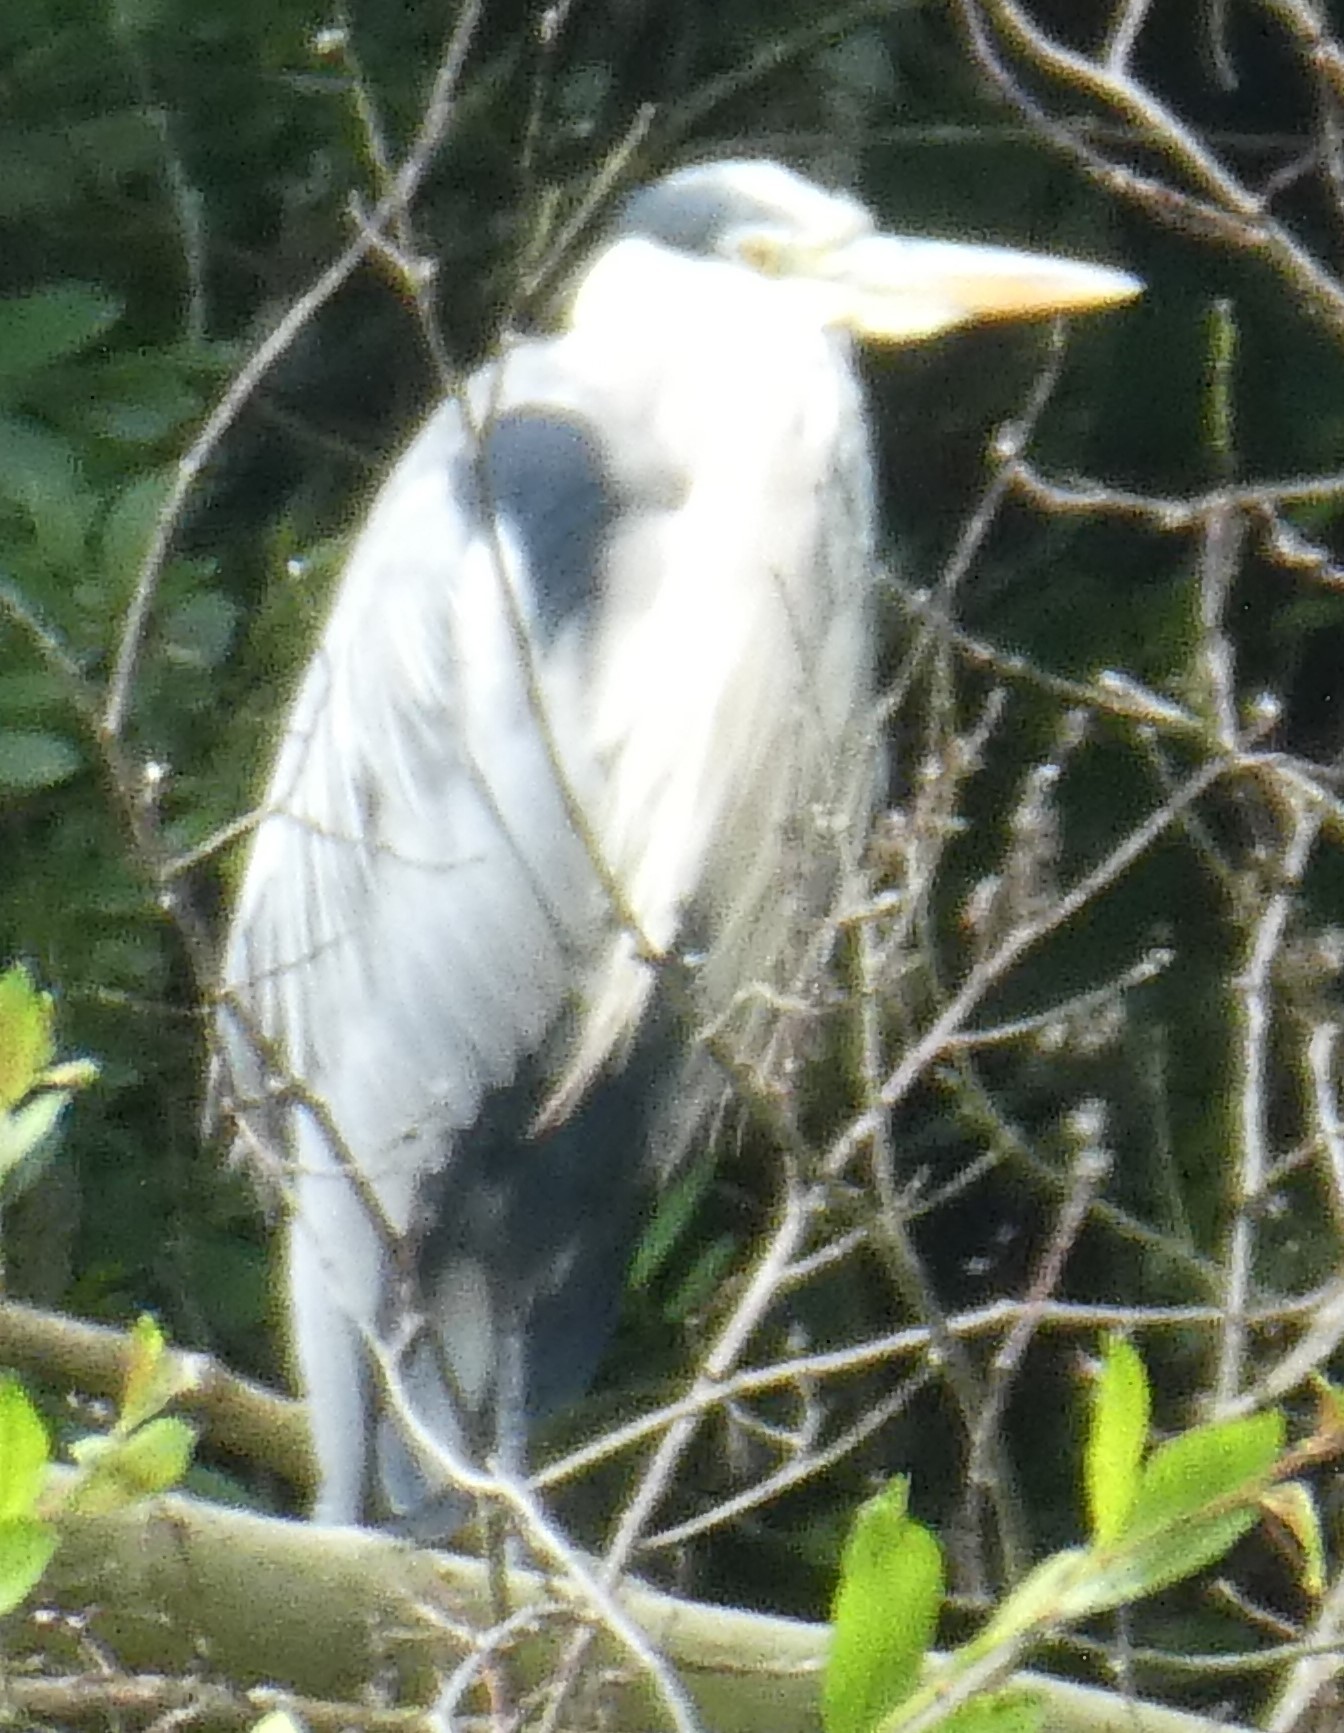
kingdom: Animalia
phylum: Chordata
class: Aves
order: Pelecaniformes
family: Ardeidae
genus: Ardea
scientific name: Ardea cinerea
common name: Grey heron
